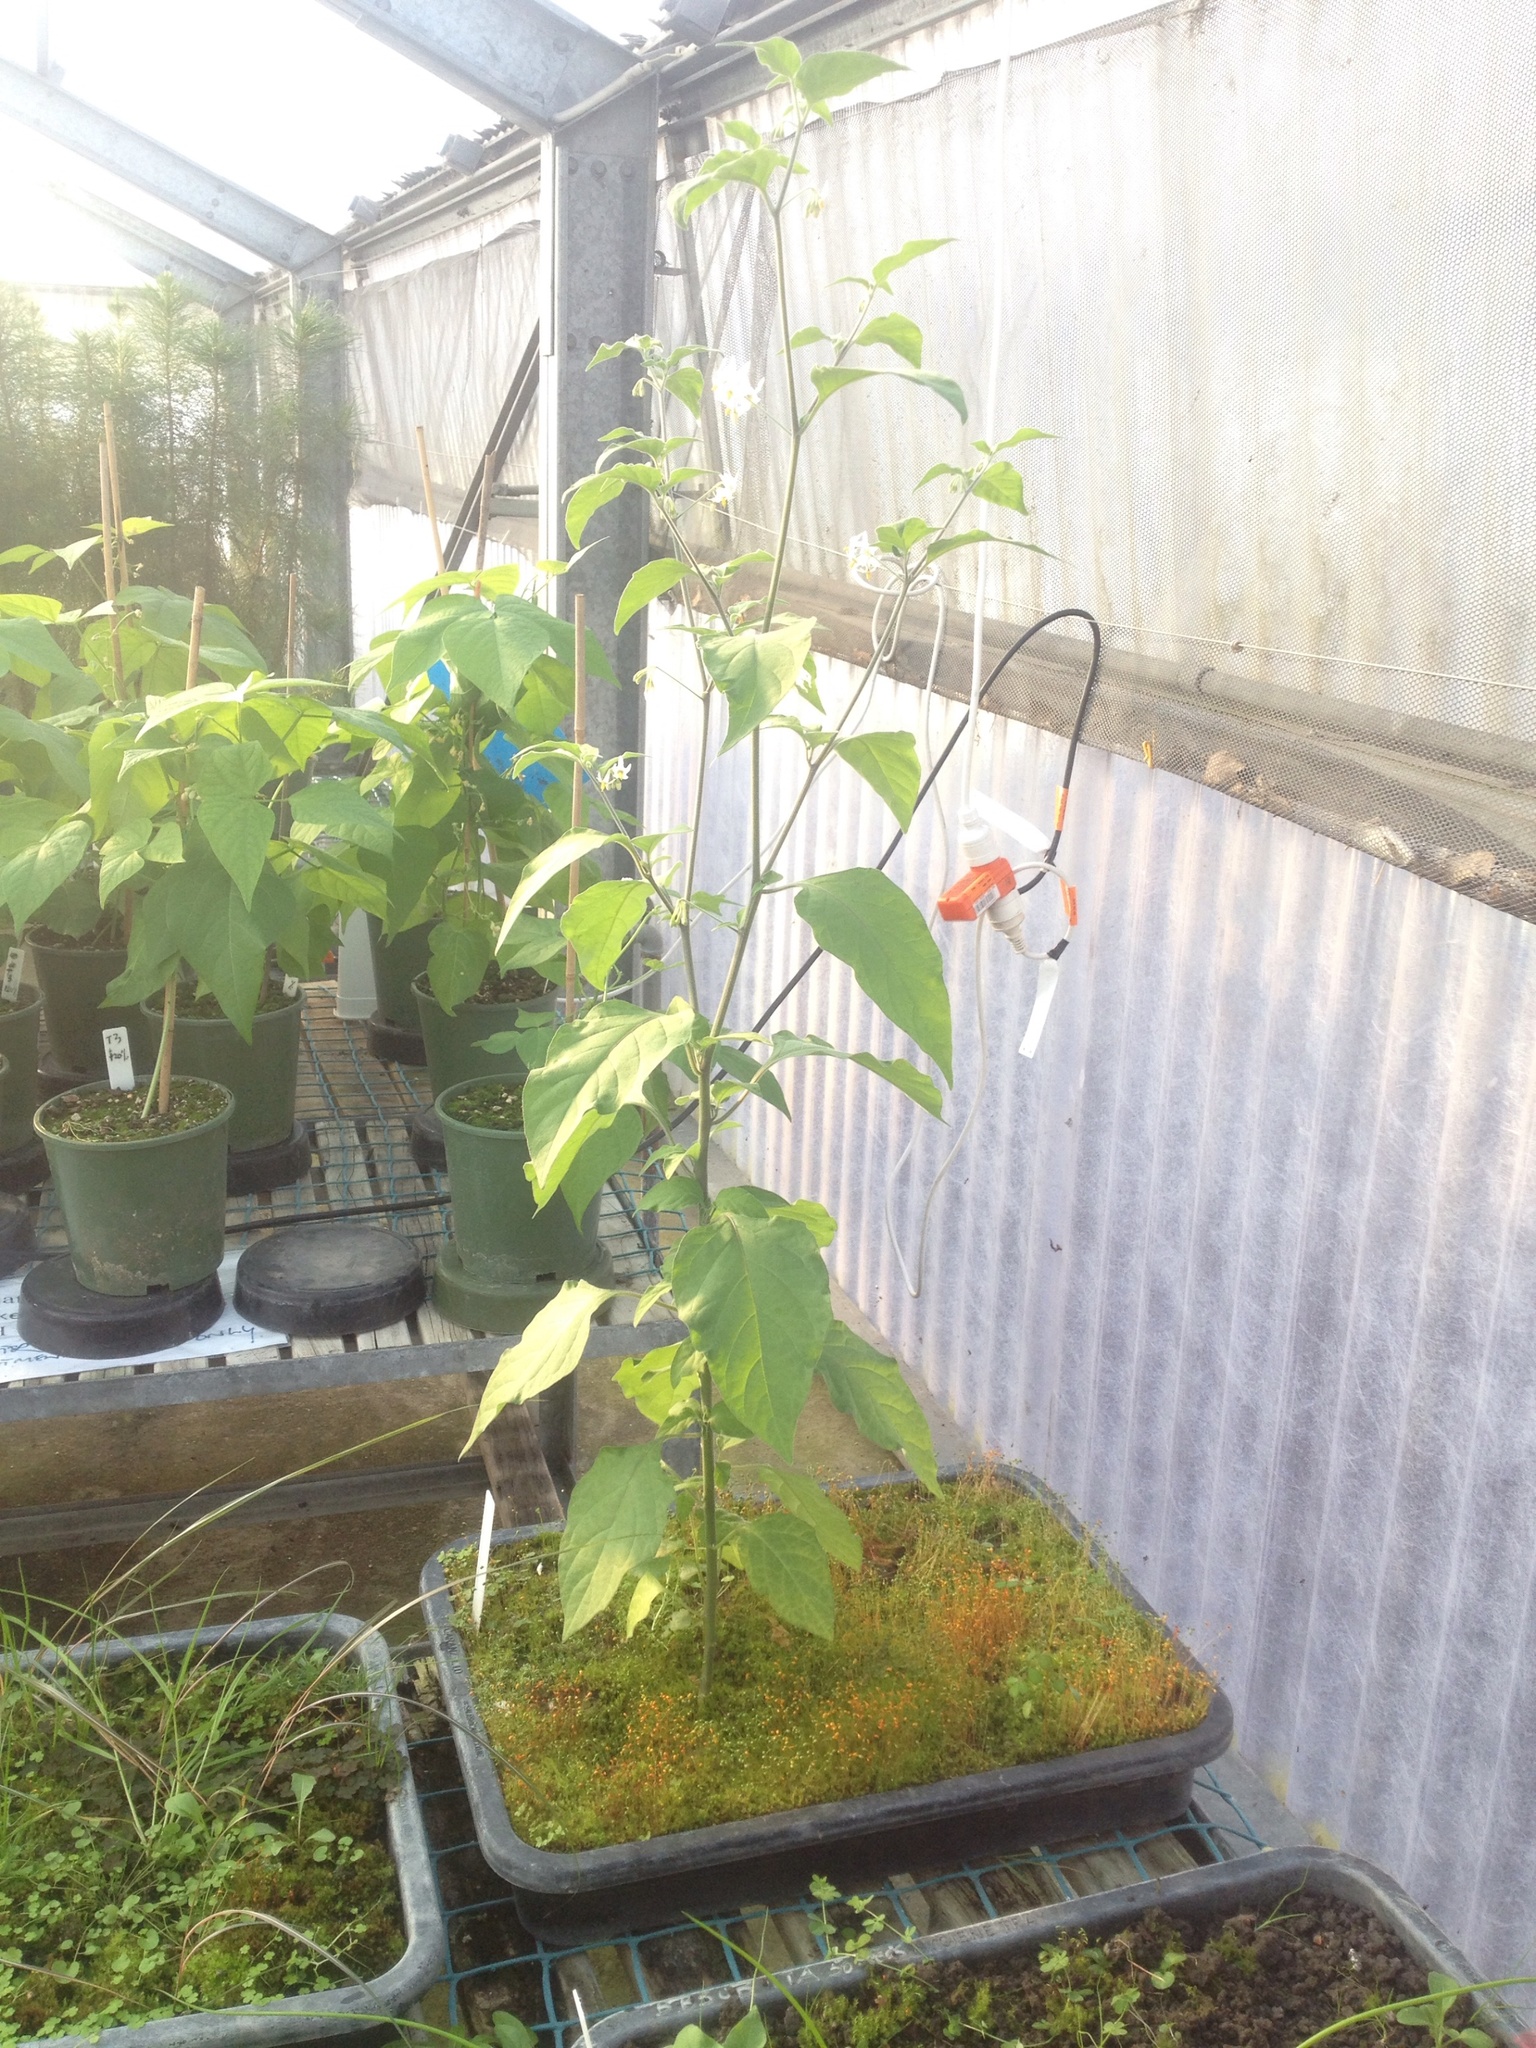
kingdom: Plantae
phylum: Tracheophyta
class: Magnoliopsida
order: Solanales
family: Solanaceae
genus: Solanum
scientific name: Solanum chenopodioides
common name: Tall nightshade
